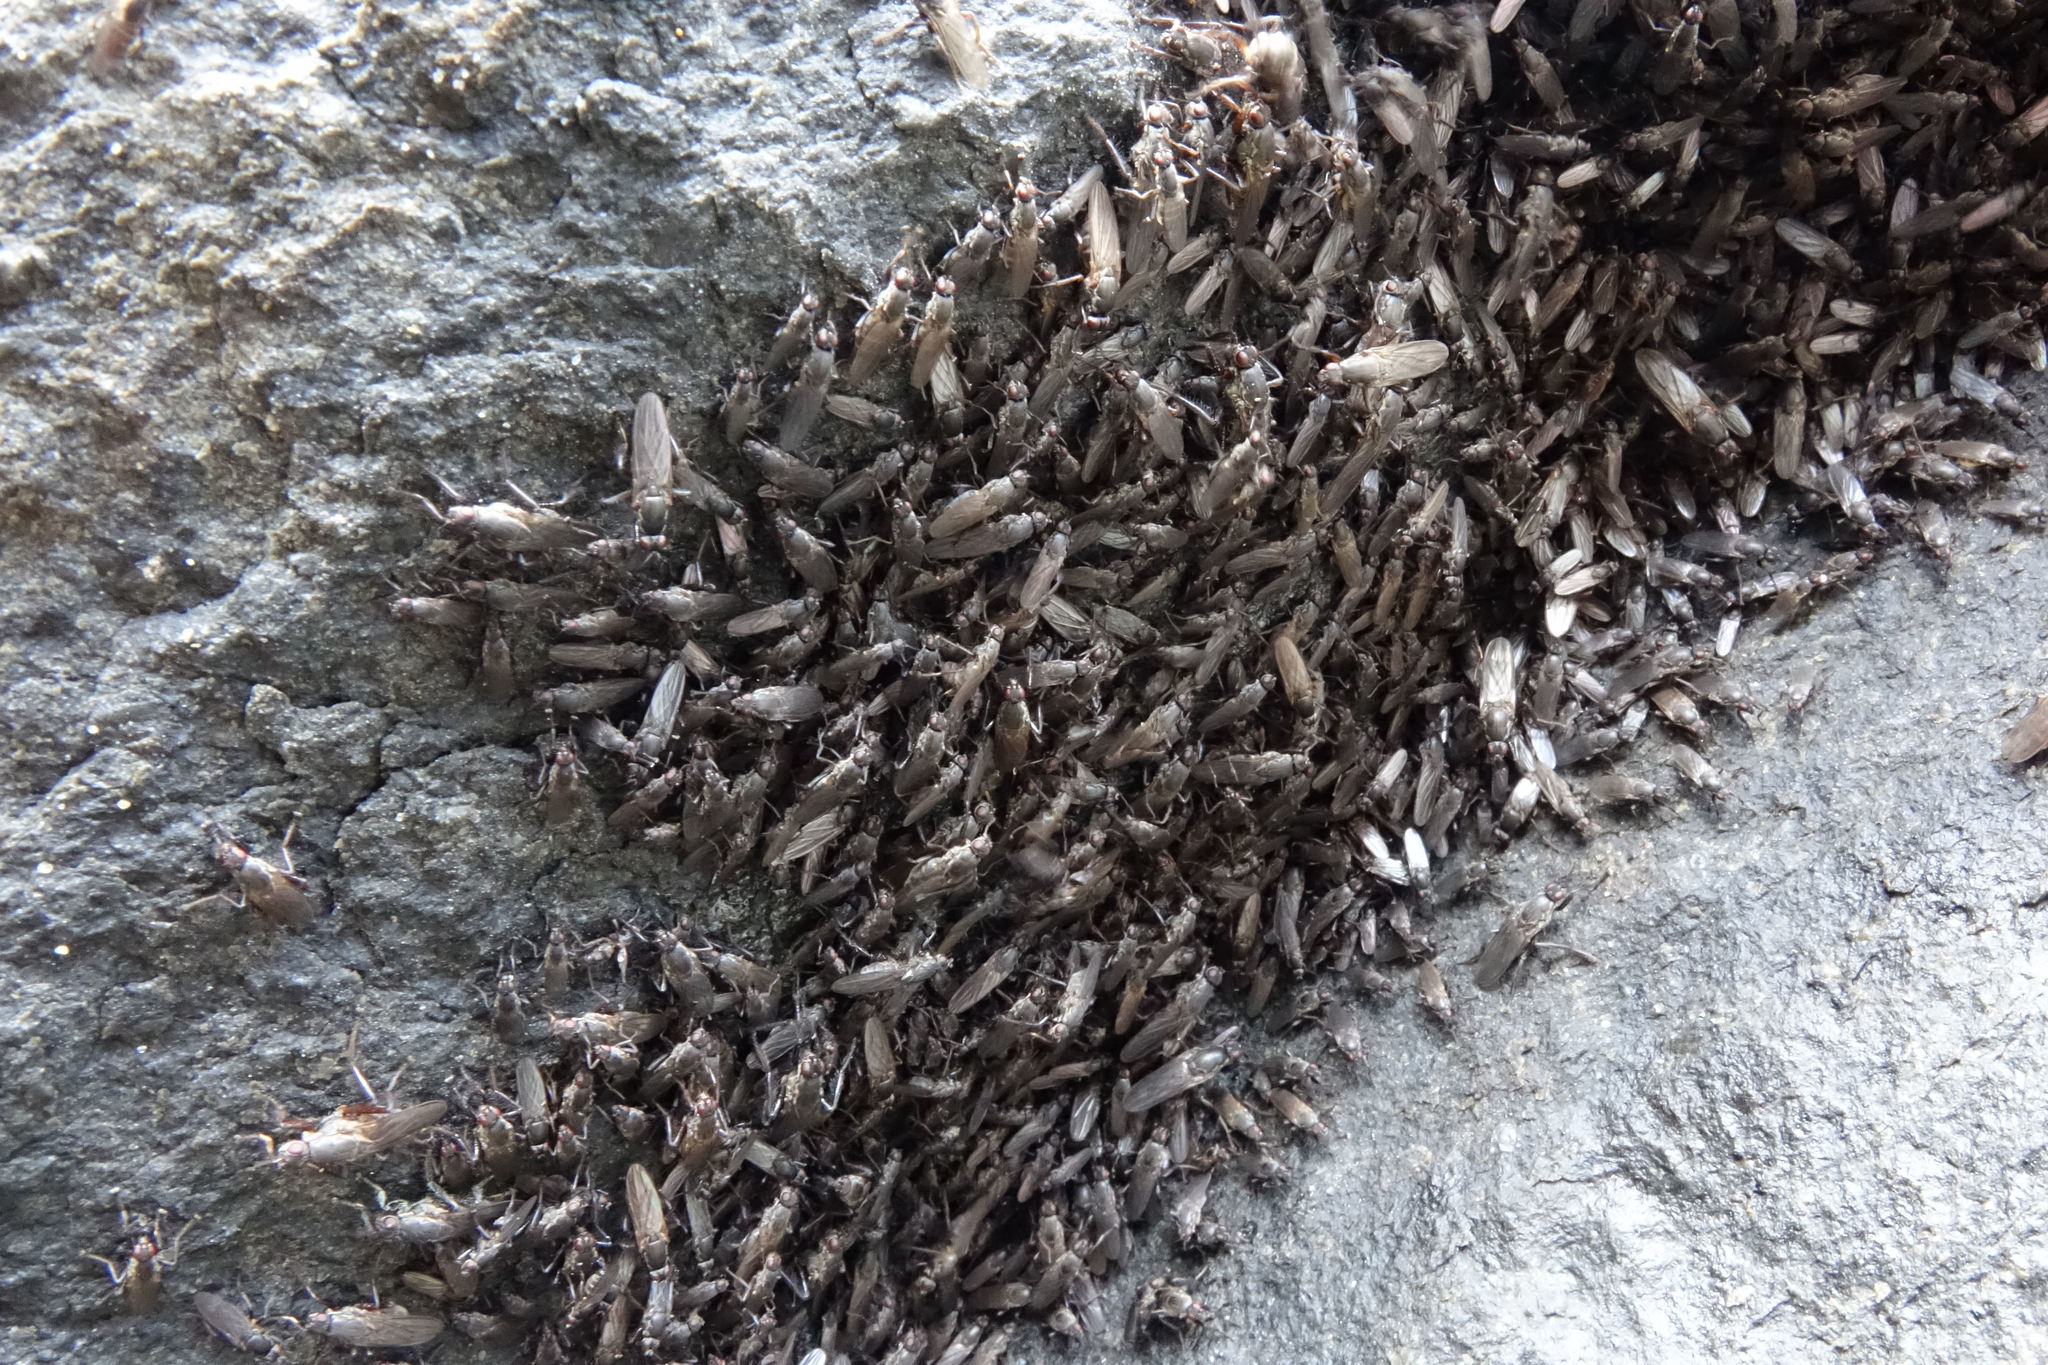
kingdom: Animalia
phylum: Arthropoda
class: Insecta
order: Diptera
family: Coelopidae
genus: Chaetocoelopa
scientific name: Chaetocoelopa littoralis
